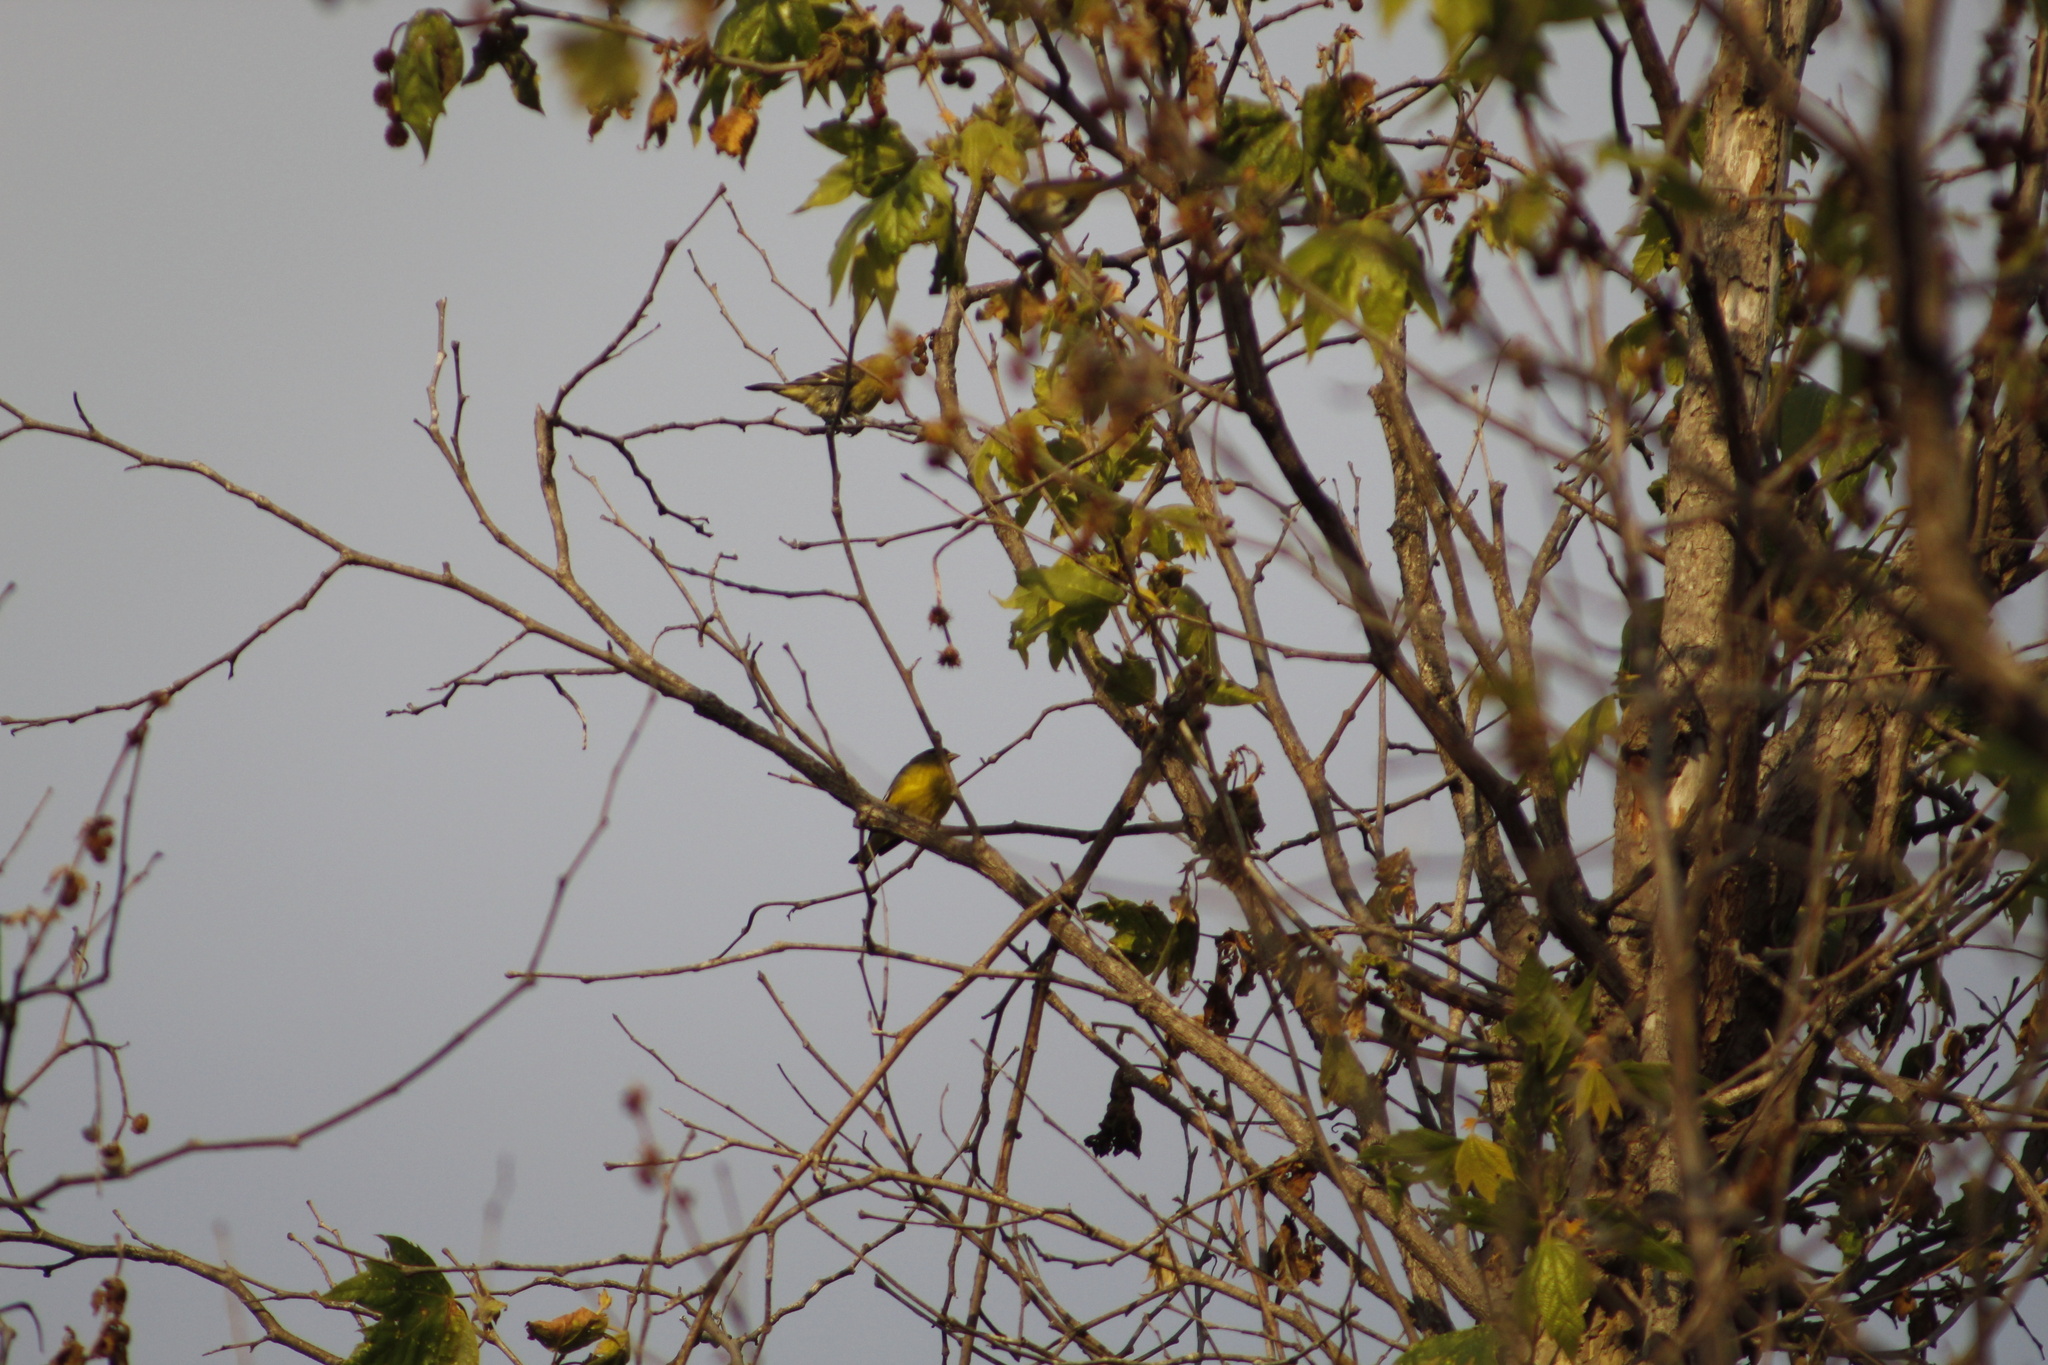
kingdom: Animalia
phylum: Chordata
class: Aves
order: Passeriformes
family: Fringillidae
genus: Spinus
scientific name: Spinus psaltria
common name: Lesser goldfinch
